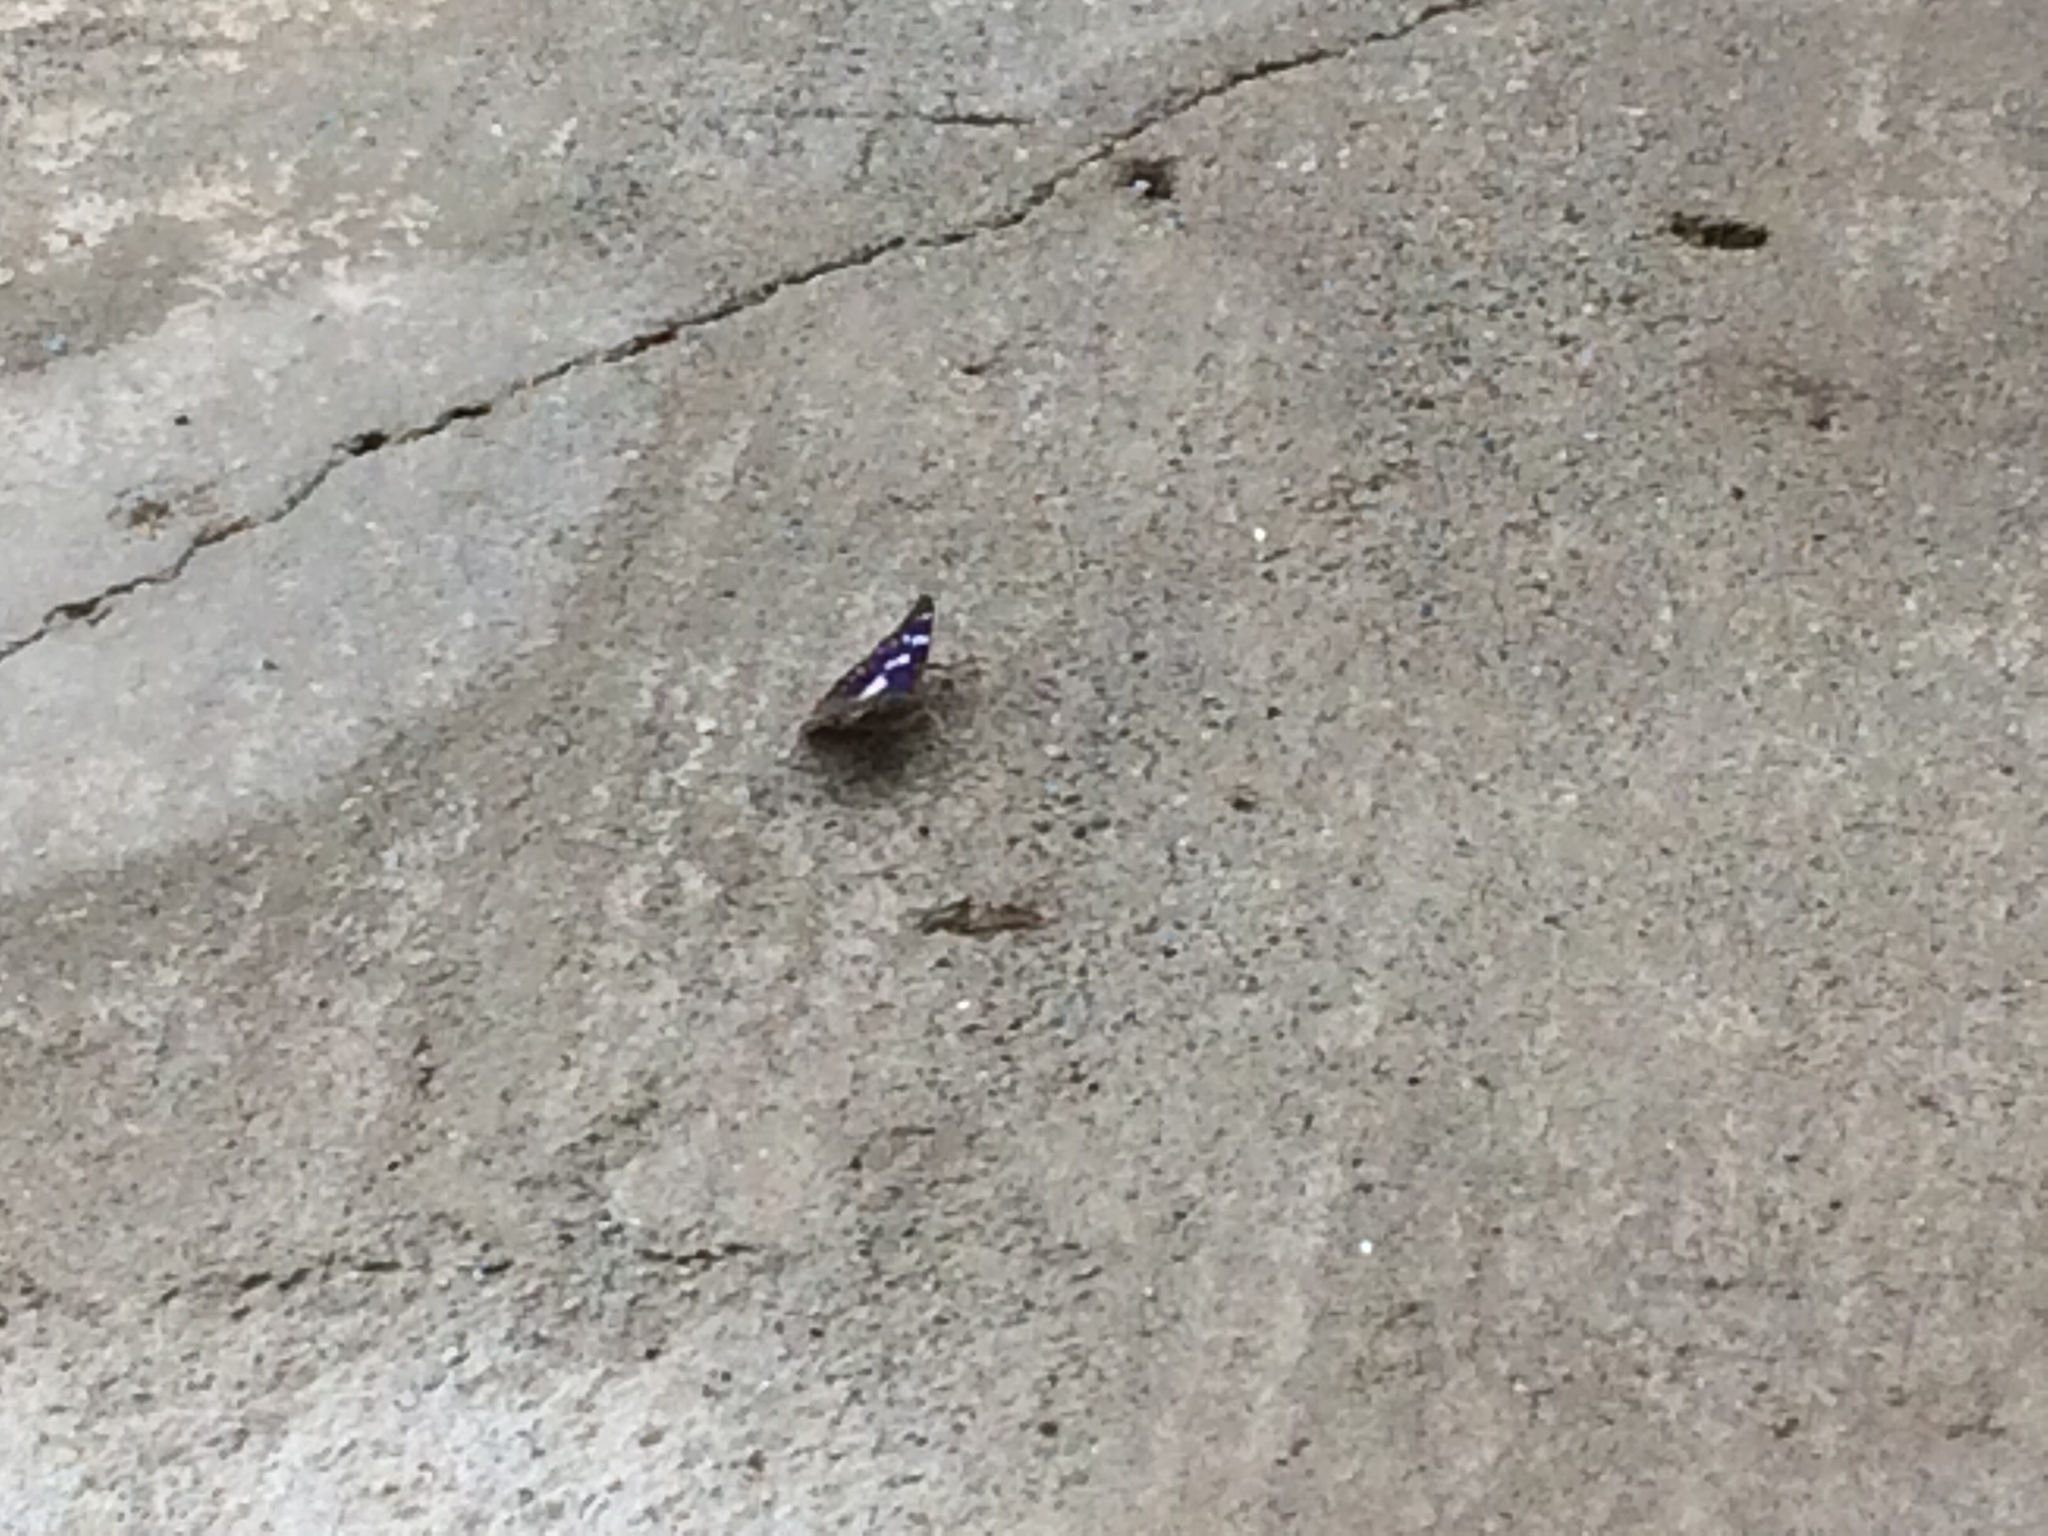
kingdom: Animalia
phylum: Arthropoda
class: Insecta
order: Lepidoptera
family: Nymphalidae
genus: Apatura
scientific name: Apatura iris
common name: Purple emperor
